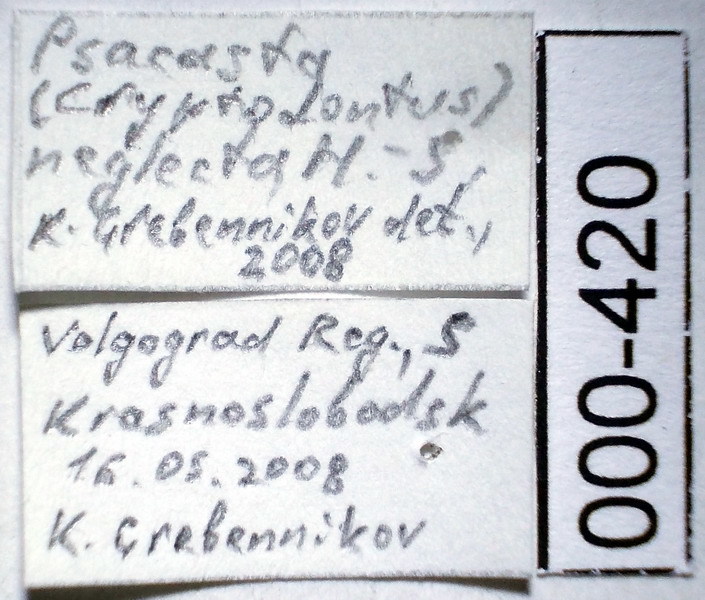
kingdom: Animalia
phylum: Arthropoda
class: Insecta
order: Hemiptera
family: Scutelleridae
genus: Psacasta
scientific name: Psacasta neglecta
